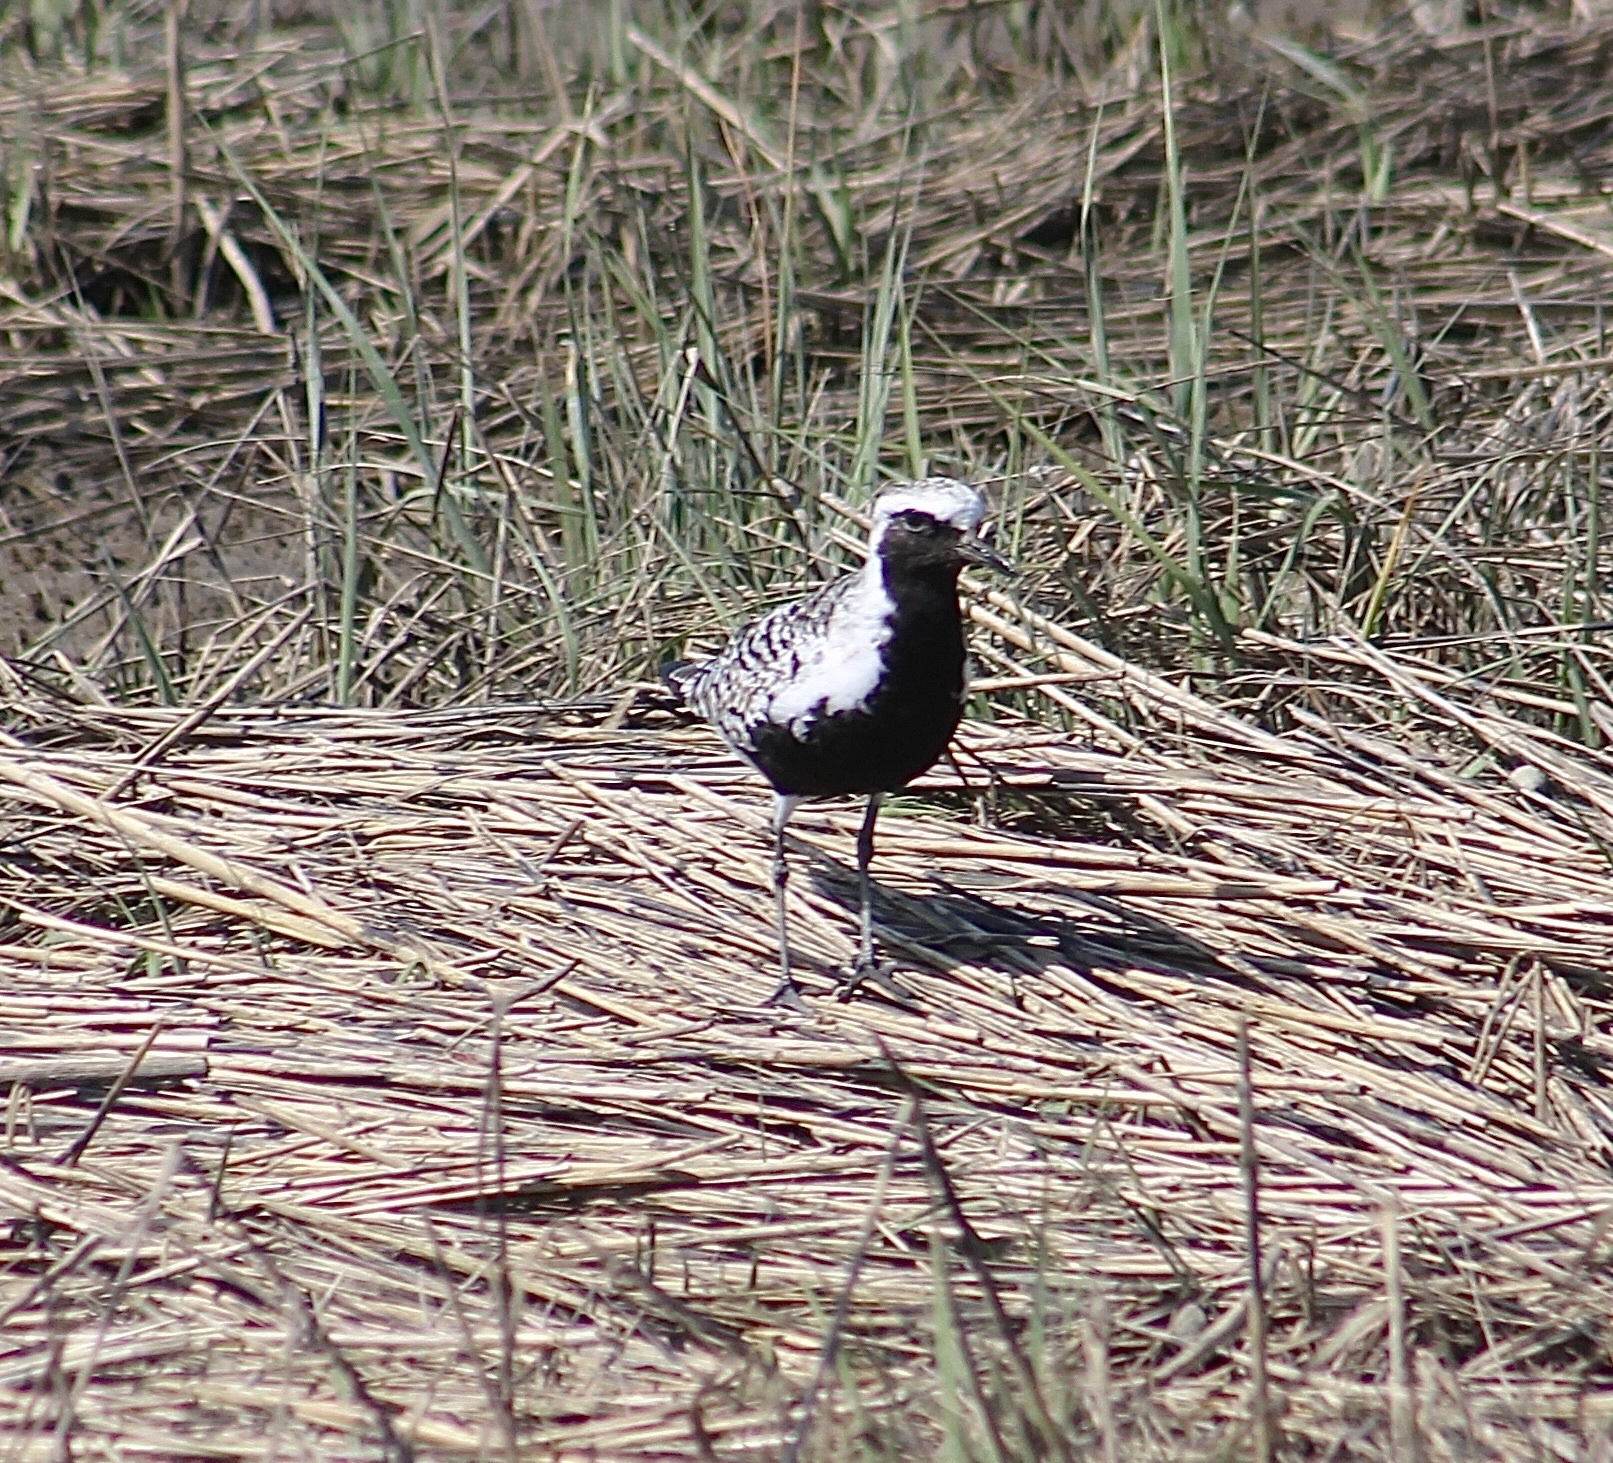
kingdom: Animalia
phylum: Chordata
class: Aves
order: Charadriiformes
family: Charadriidae
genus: Pluvialis
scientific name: Pluvialis squatarola
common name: Grey plover
